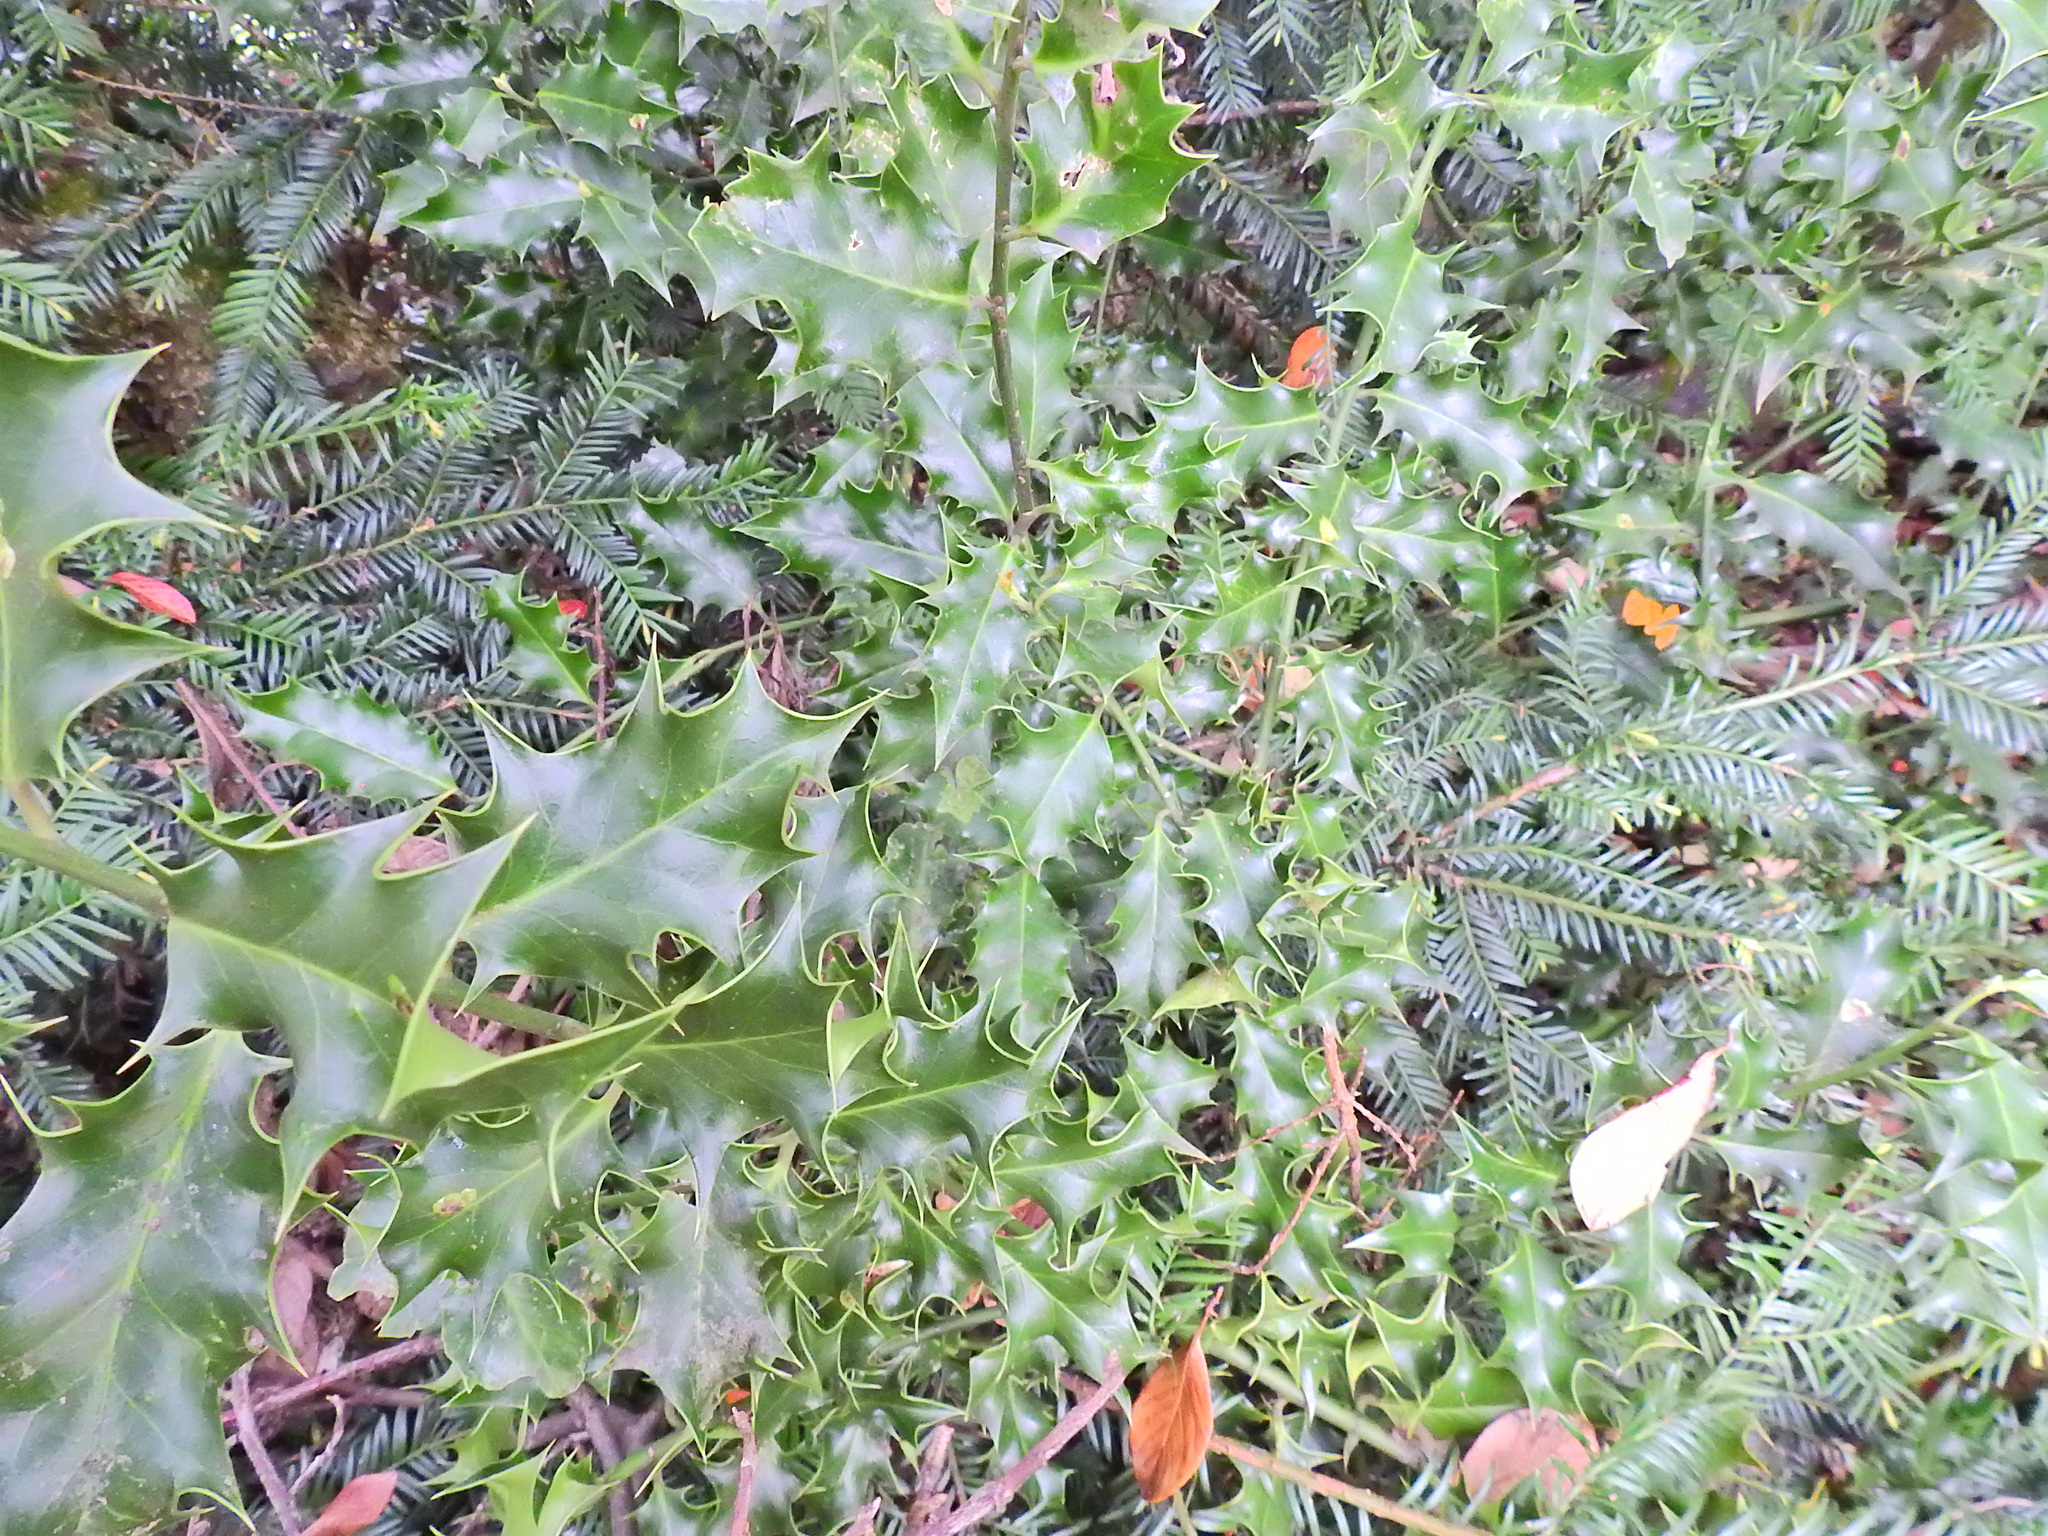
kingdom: Plantae
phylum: Tracheophyta
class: Magnoliopsida
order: Aquifoliales
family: Aquifoliaceae
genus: Ilex
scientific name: Ilex aquifolium
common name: English holly
